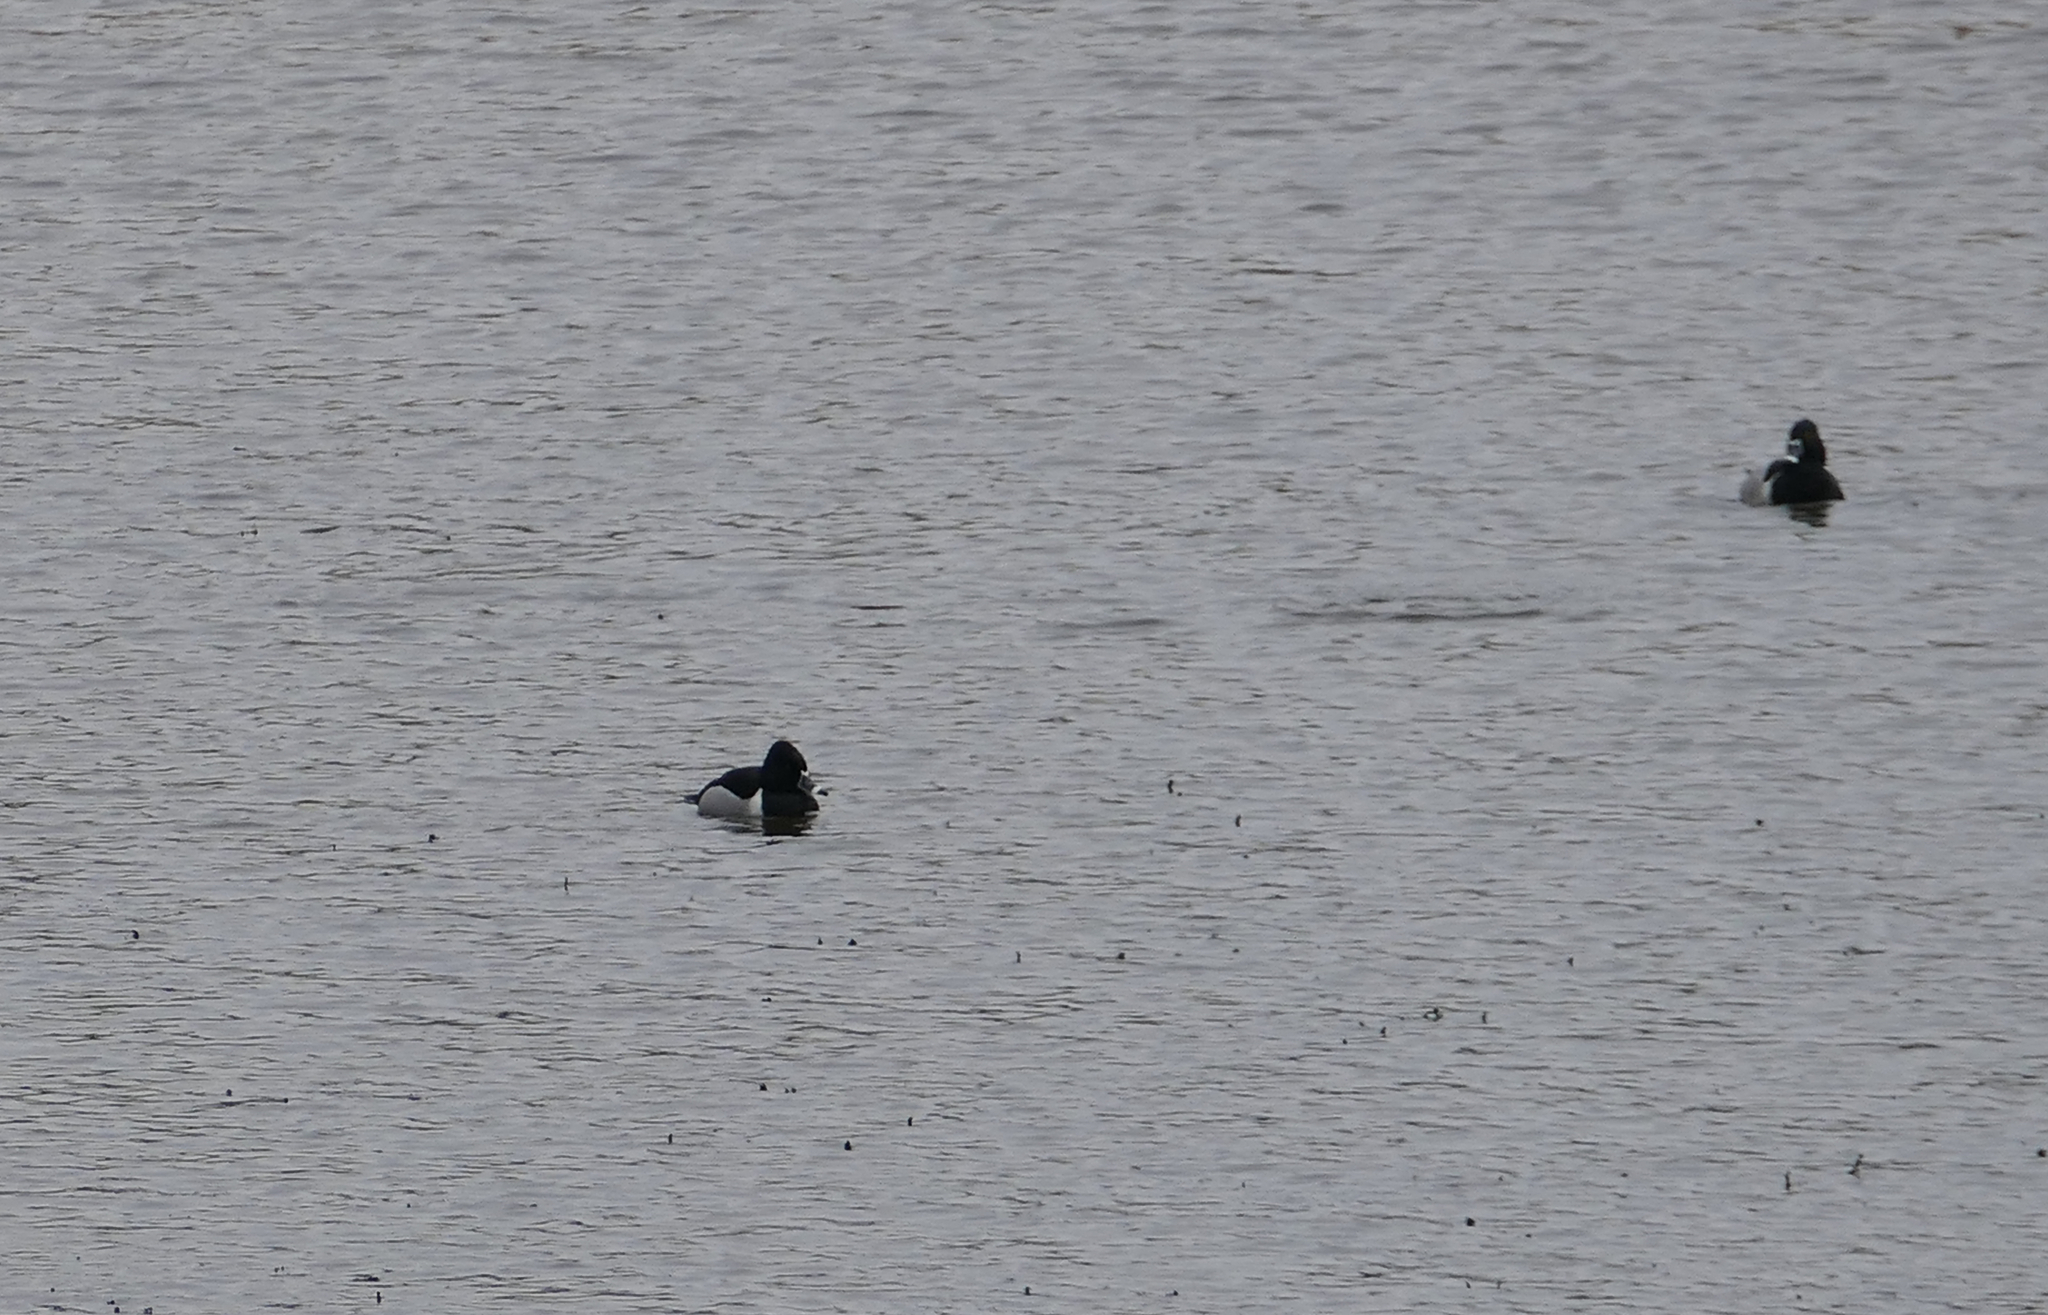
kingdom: Animalia
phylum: Chordata
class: Aves
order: Anseriformes
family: Anatidae
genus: Aythya
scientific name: Aythya collaris
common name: Ring-necked duck
